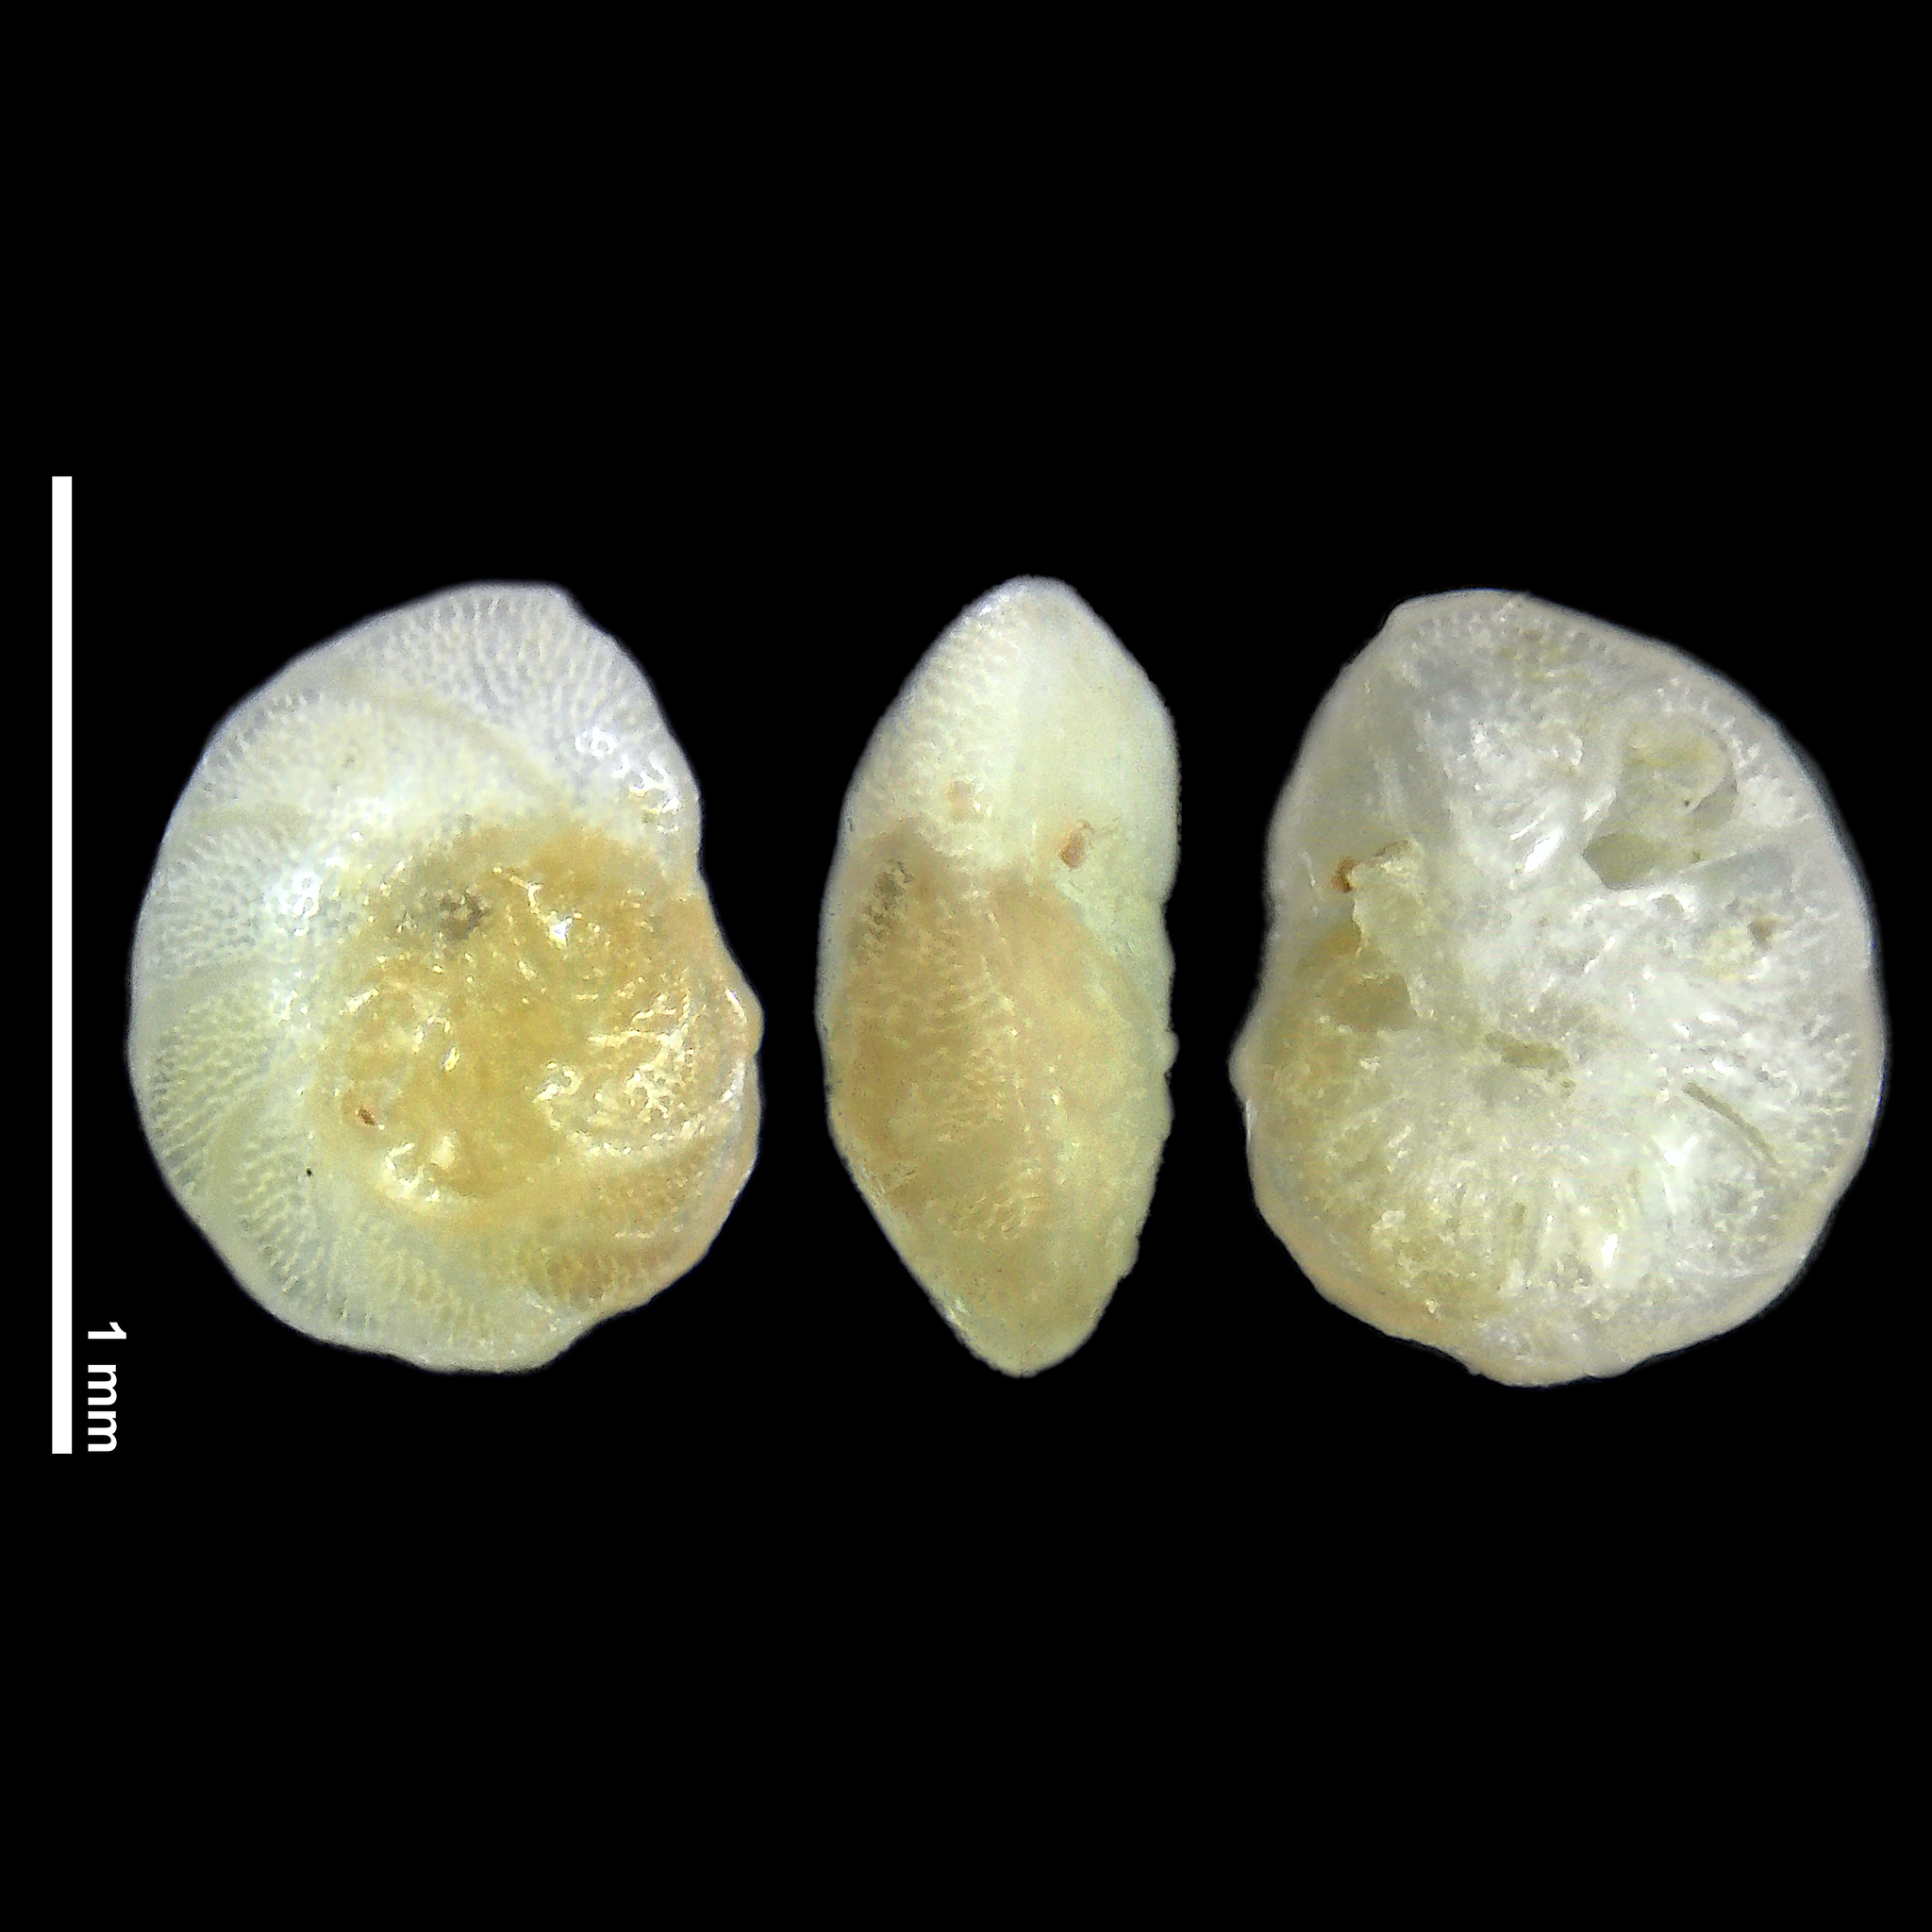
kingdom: Chromista
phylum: Foraminifera
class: Globothalamea
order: Rotaliida
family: Ammoniidae
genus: Ammonia
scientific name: Ammonia aoteana
